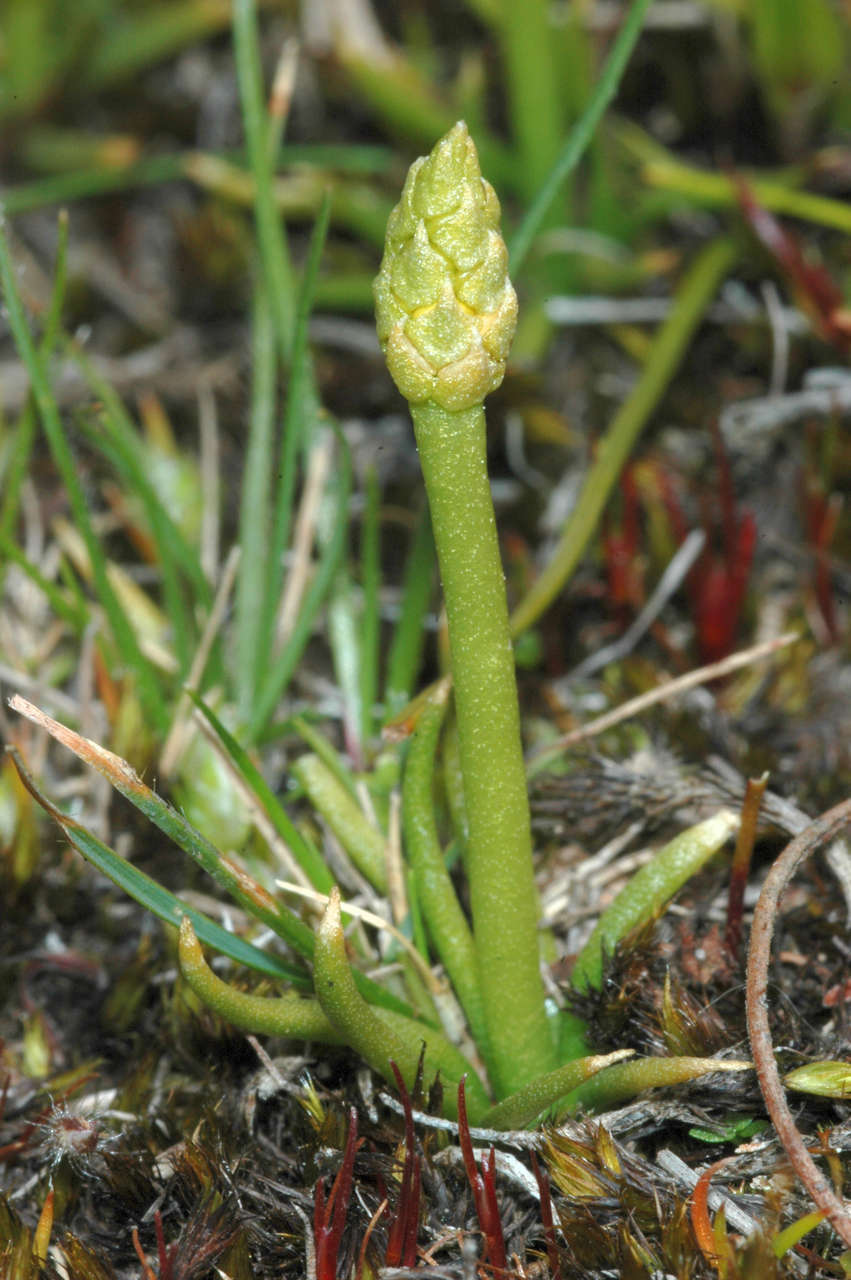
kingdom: Plantae
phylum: Tracheophyta
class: Lycopodiopsida
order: Lycopodiales
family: Lycopodiaceae
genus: Phylloglossum
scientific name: Phylloglossum drummondii
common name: Pigmy-club-moss
